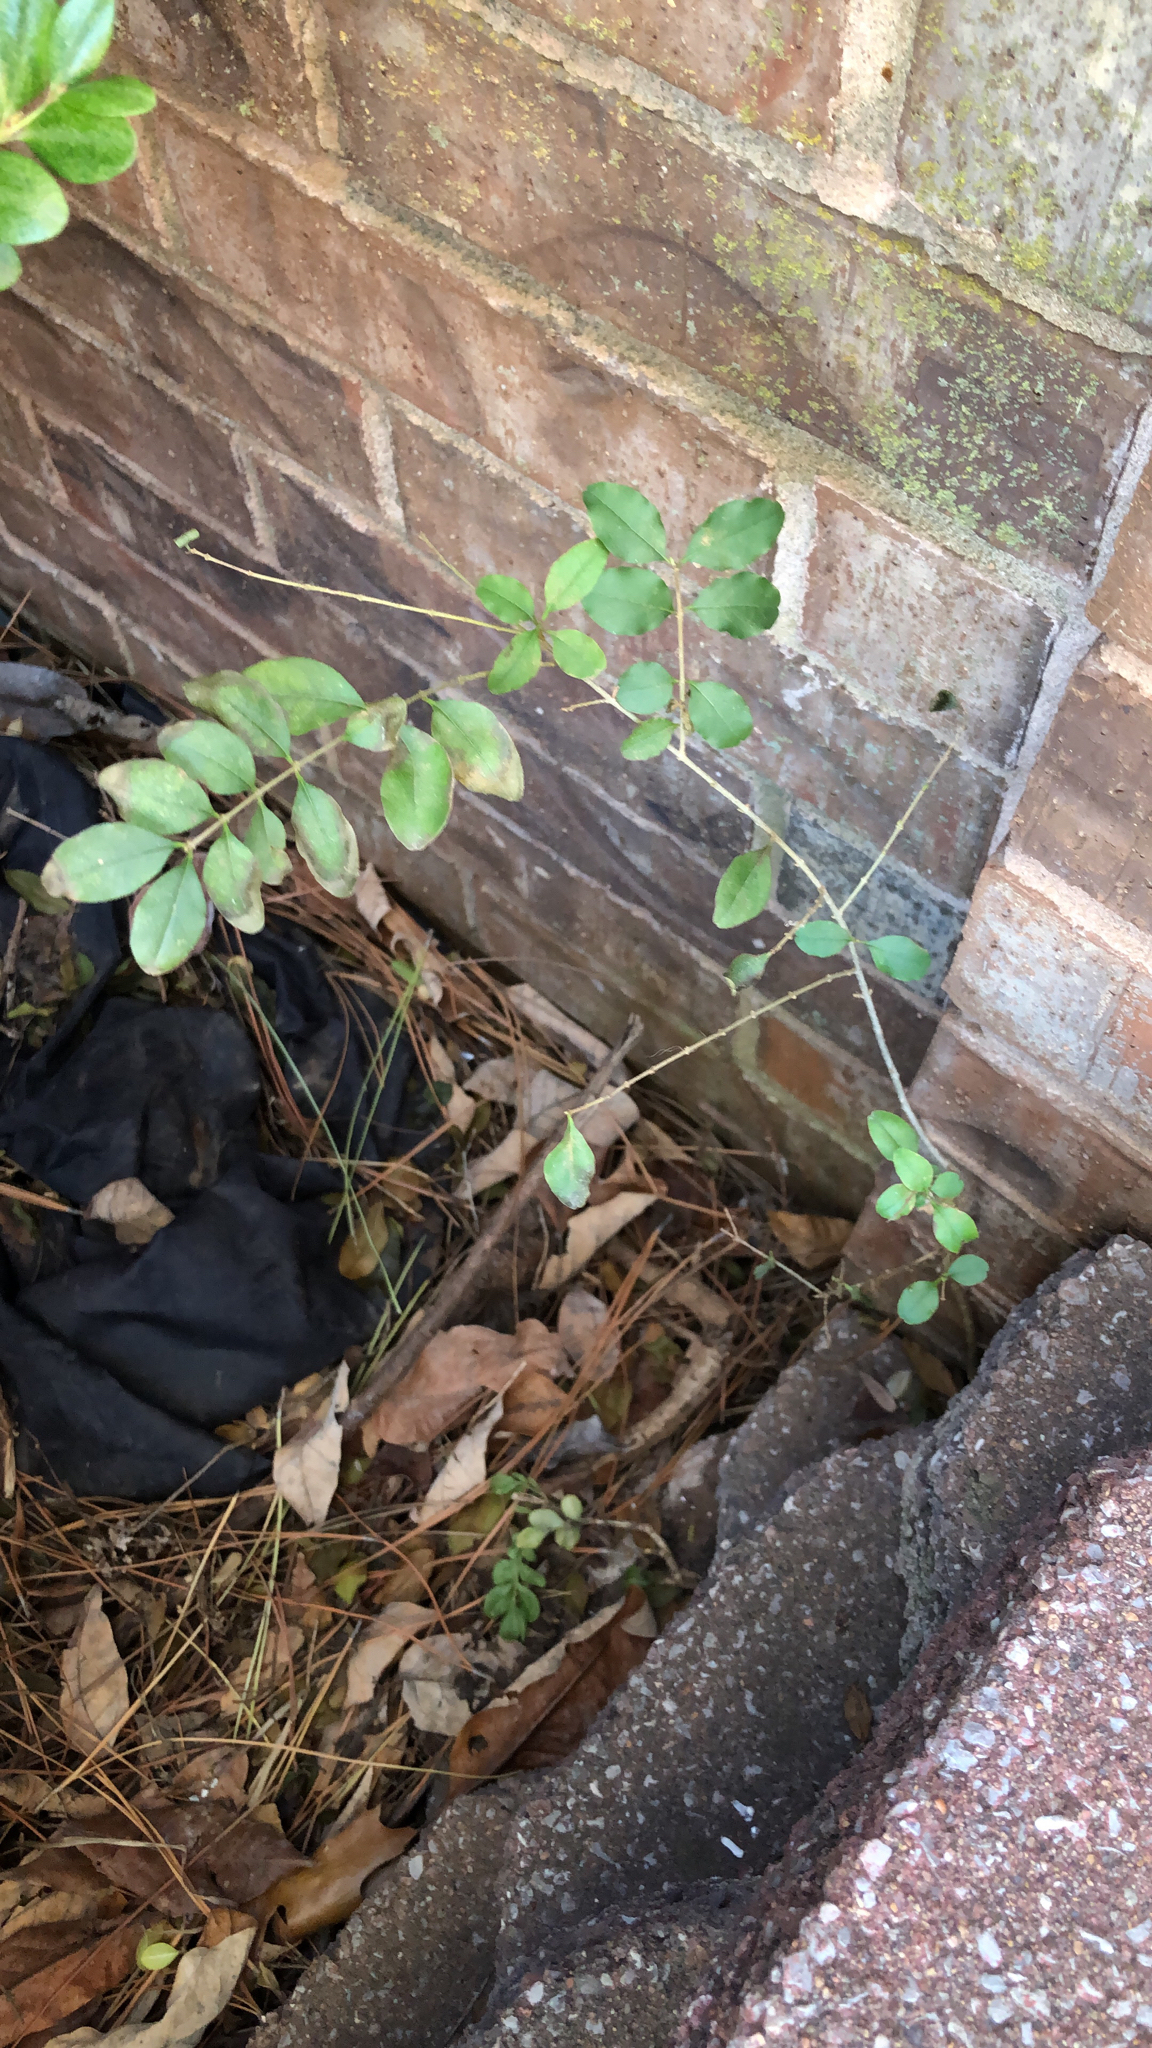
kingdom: Plantae
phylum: Tracheophyta
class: Magnoliopsida
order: Lamiales
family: Oleaceae
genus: Ligustrum
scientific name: Ligustrum sinense
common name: Chinese privet
